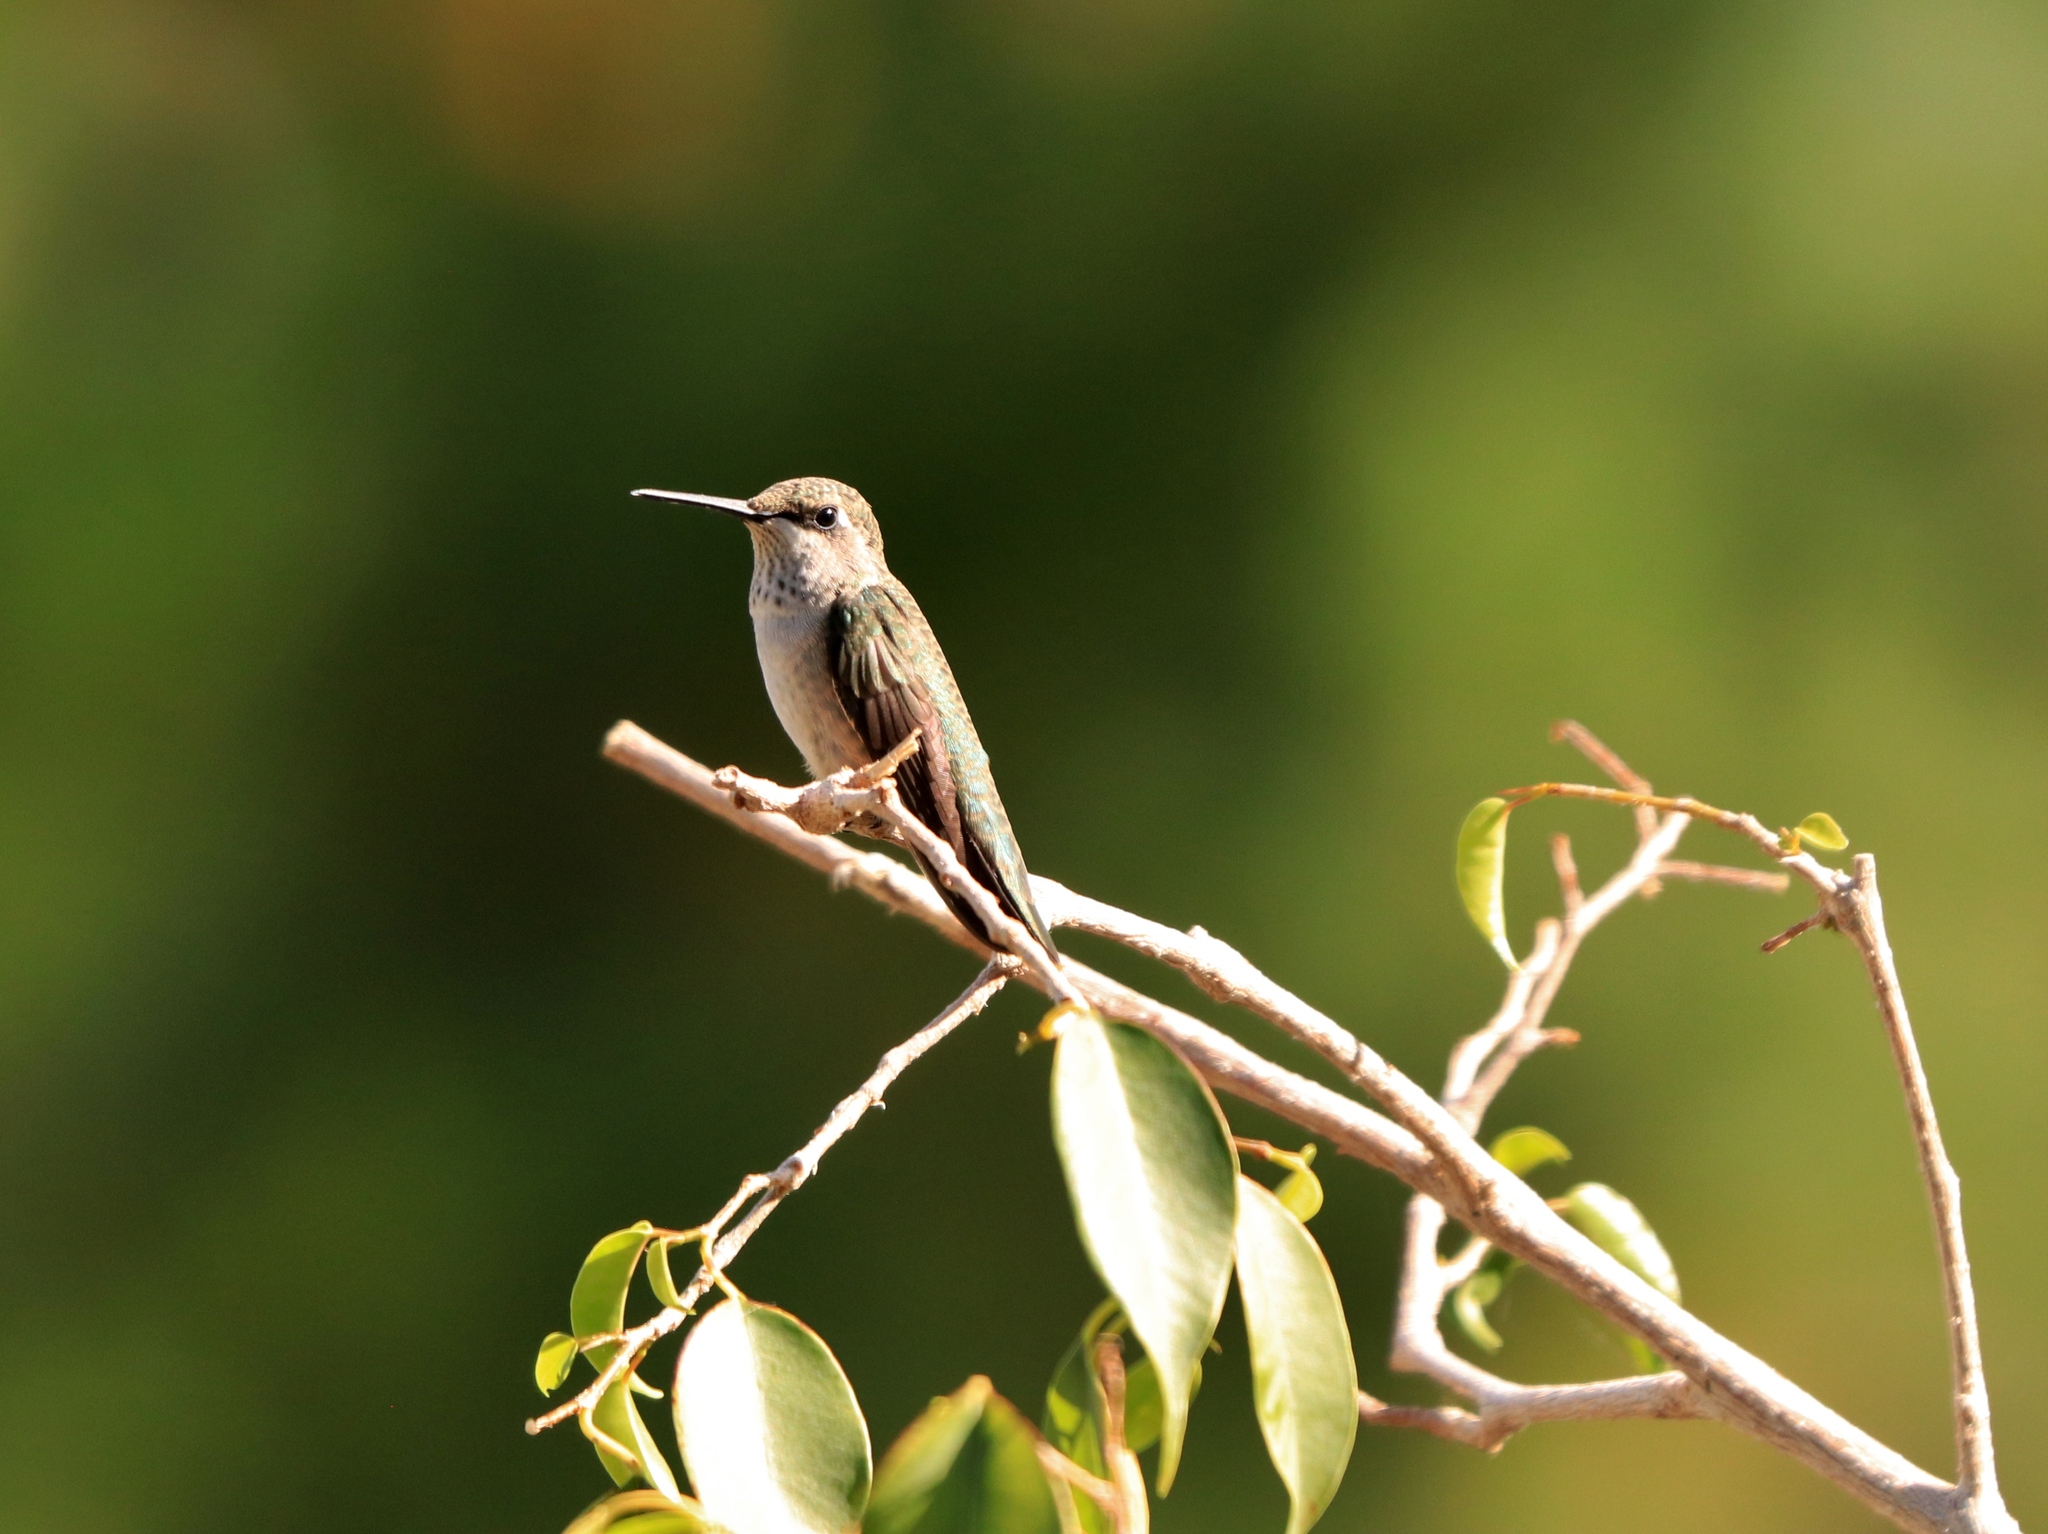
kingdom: Animalia
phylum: Chordata
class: Aves
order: Apodiformes
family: Trochilidae
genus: Archilochus
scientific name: Archilochus alexandri
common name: Black-chinned hummingbird
